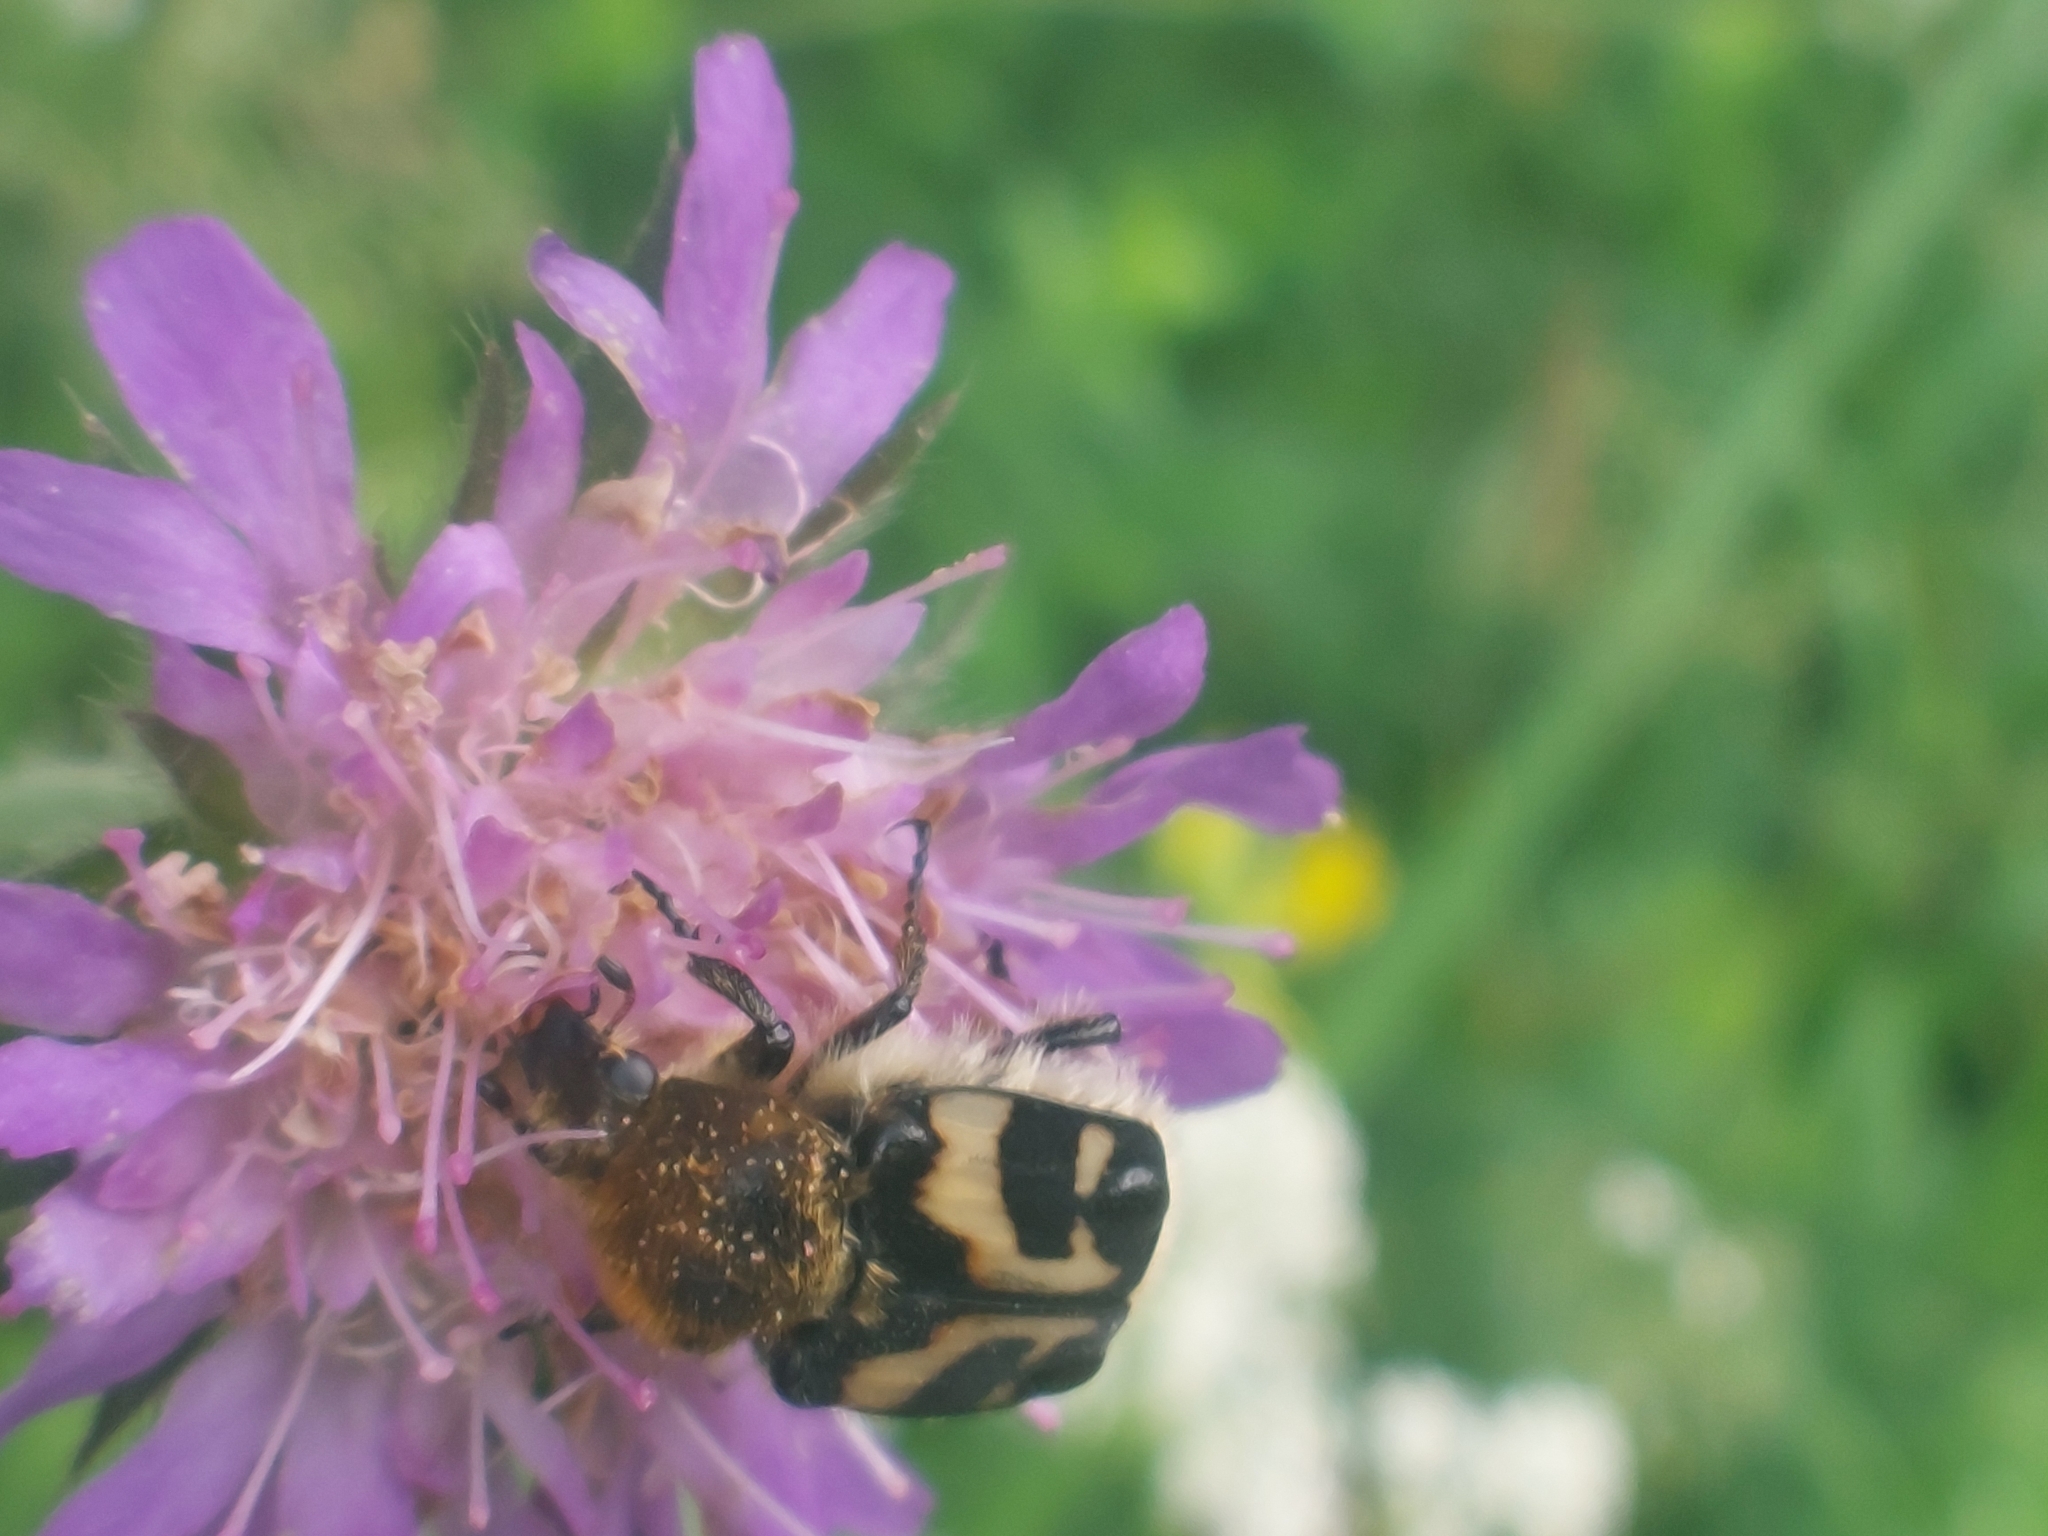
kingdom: Animalia
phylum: Arthropoda
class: Insecta
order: Coleoptera
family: Scarabaeidae
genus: Trichius
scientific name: Trichius fasciatus
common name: Bee beetle
